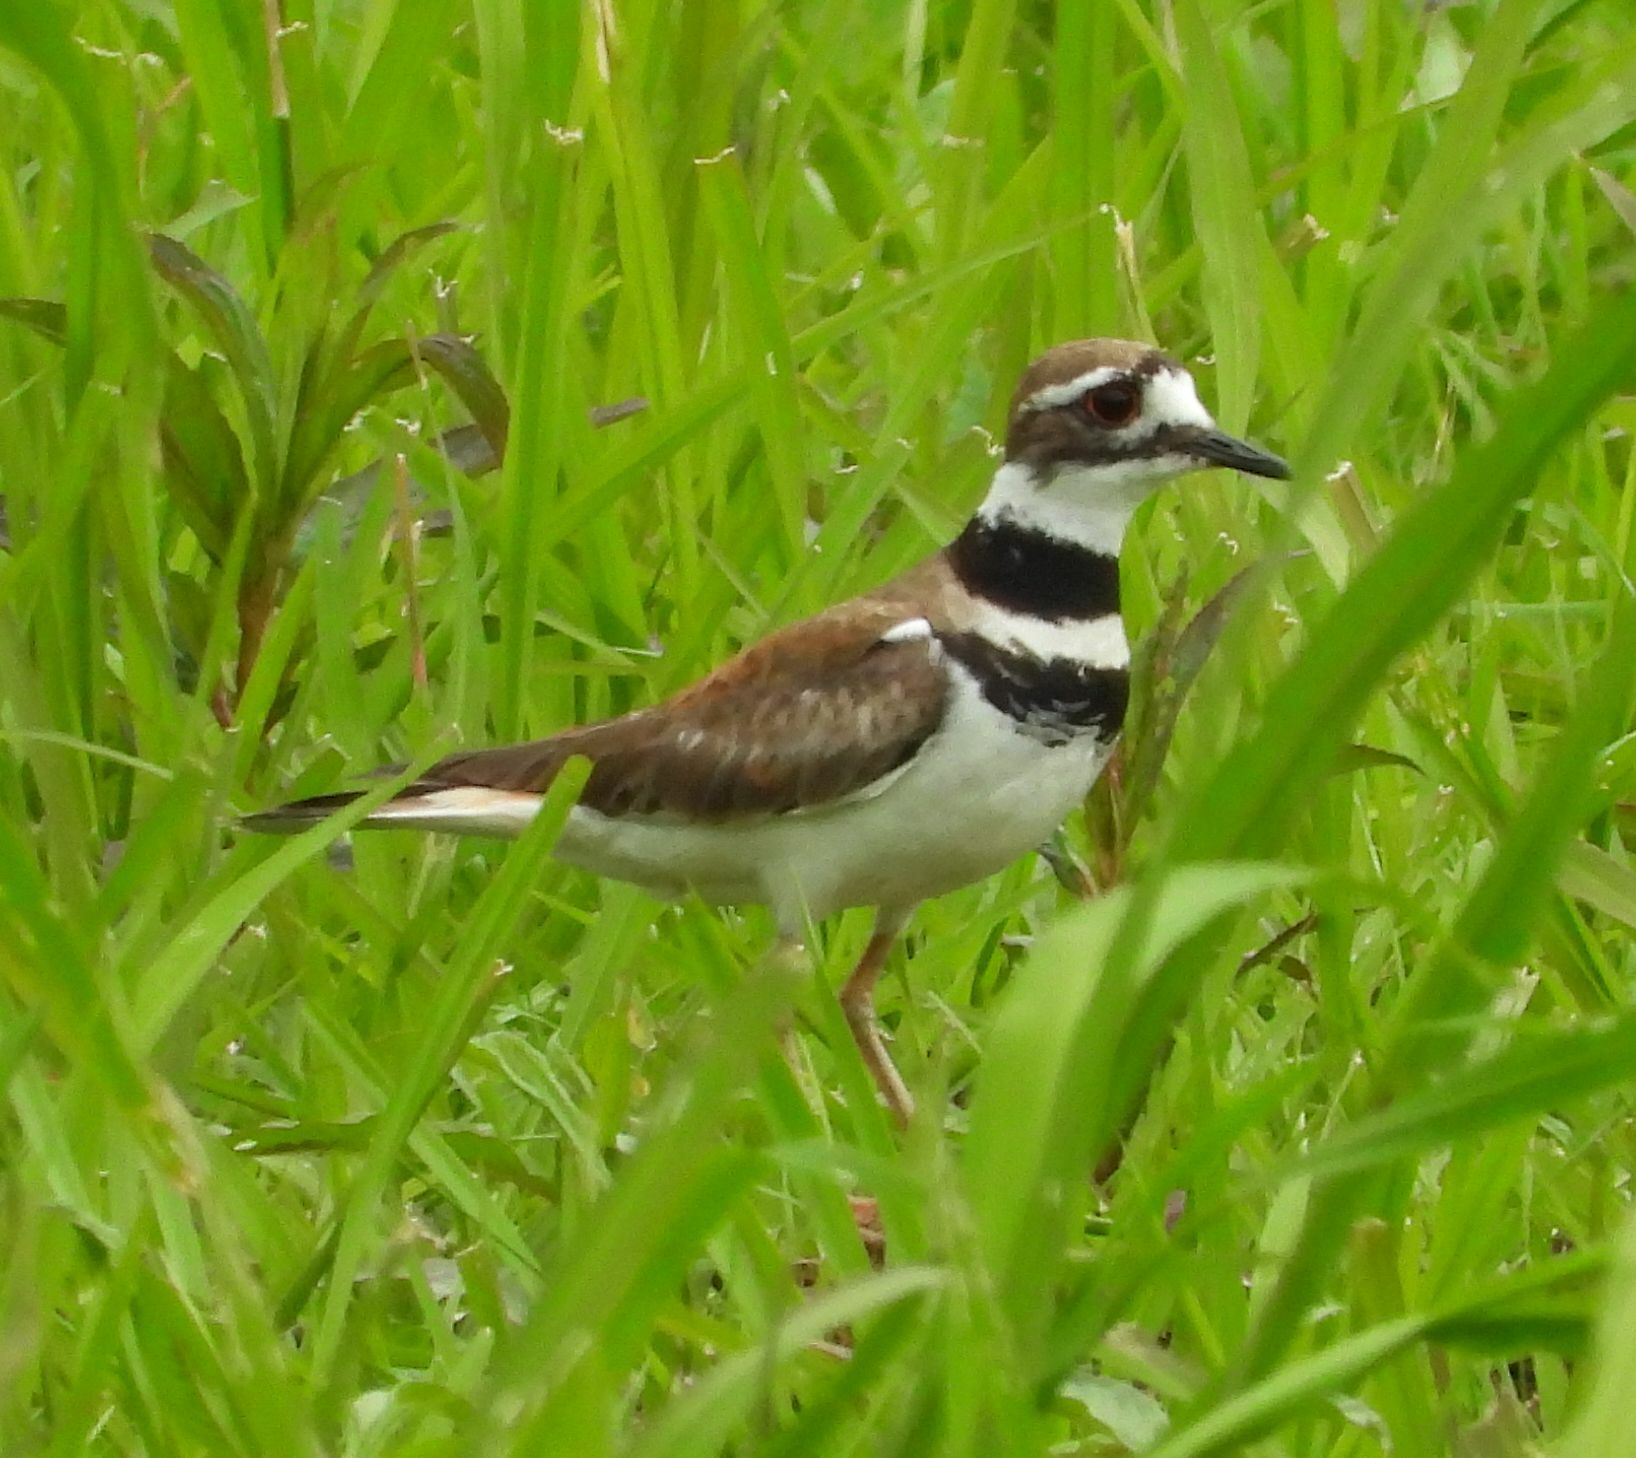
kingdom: Animalia
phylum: Chordata
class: Aves
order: Charadriiformes
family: Charadriidae
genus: Charadrius
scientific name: Charadrius vociferus
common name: Killdeer
